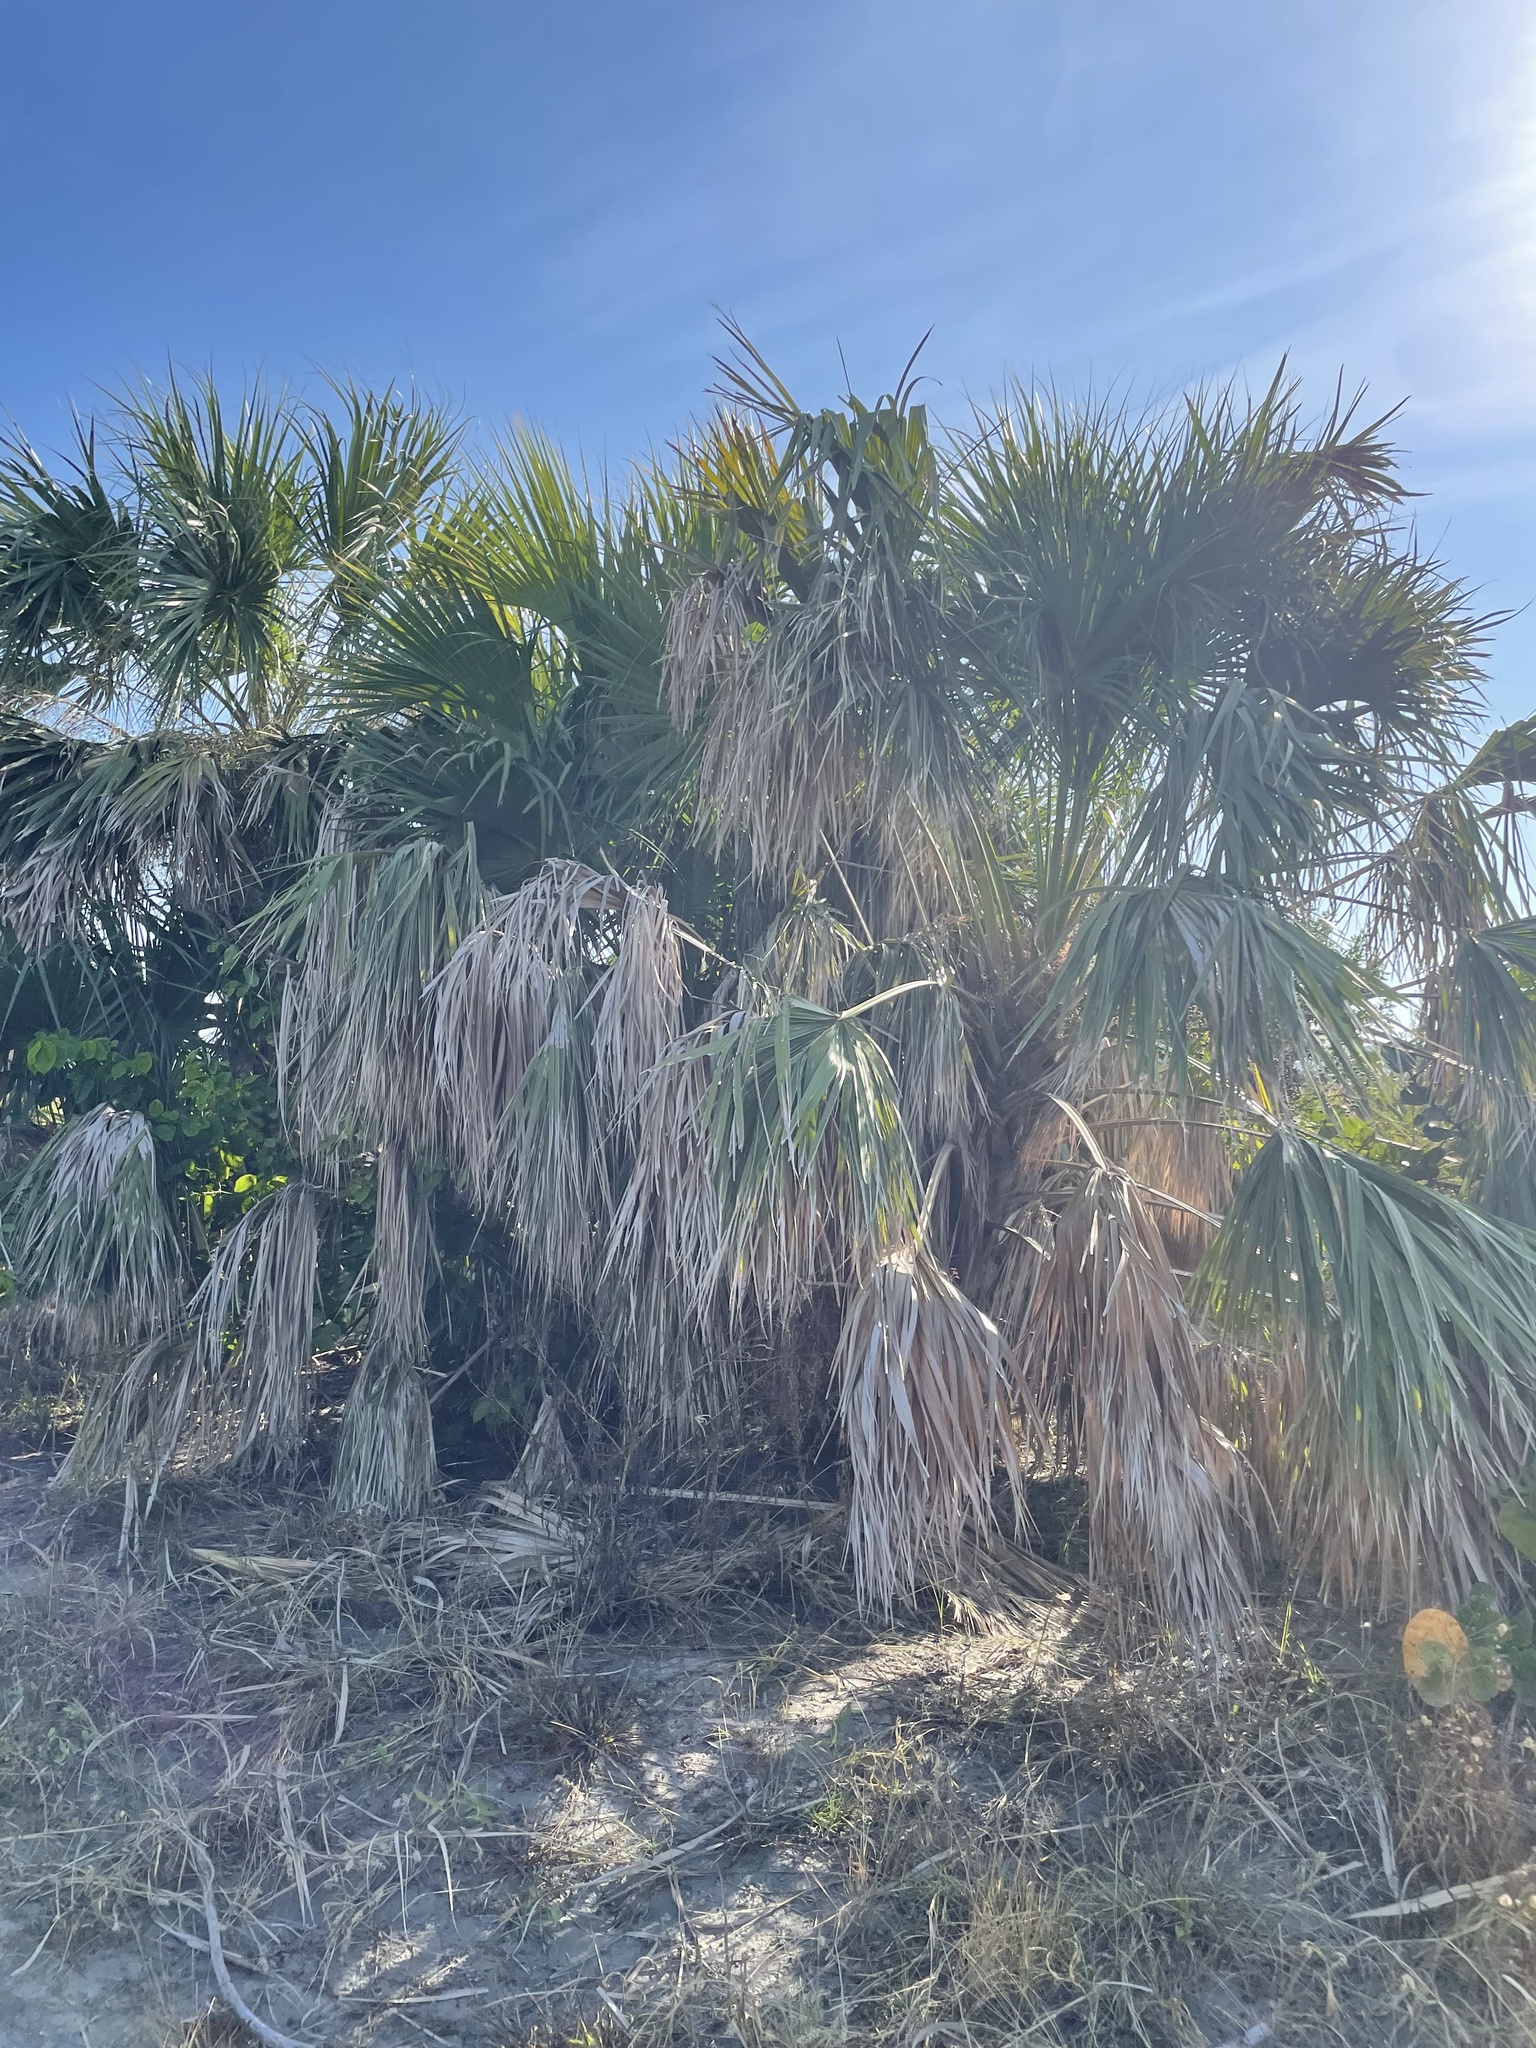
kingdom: Plantae
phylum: Tracheophyta
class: Liliopsida
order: Arecales
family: Arecaceae
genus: Sabal
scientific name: Sabal palmetto
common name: Blue palmetto
